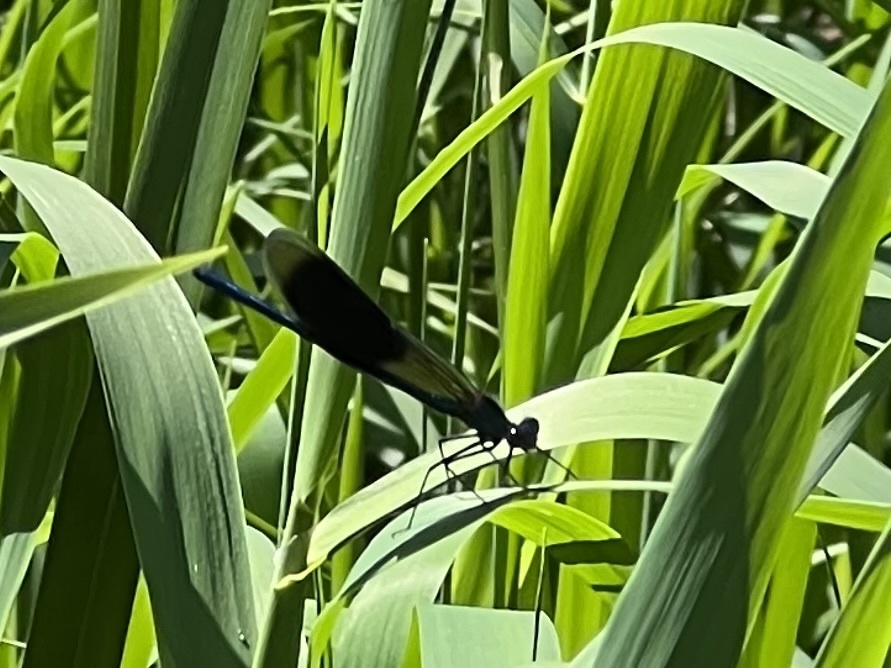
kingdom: Animalia
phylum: Arthropoda
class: Insecta
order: Odonata
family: Calopterygidae
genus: Calopteryx
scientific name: Calopteryx splendens
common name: Banded demoiselle
